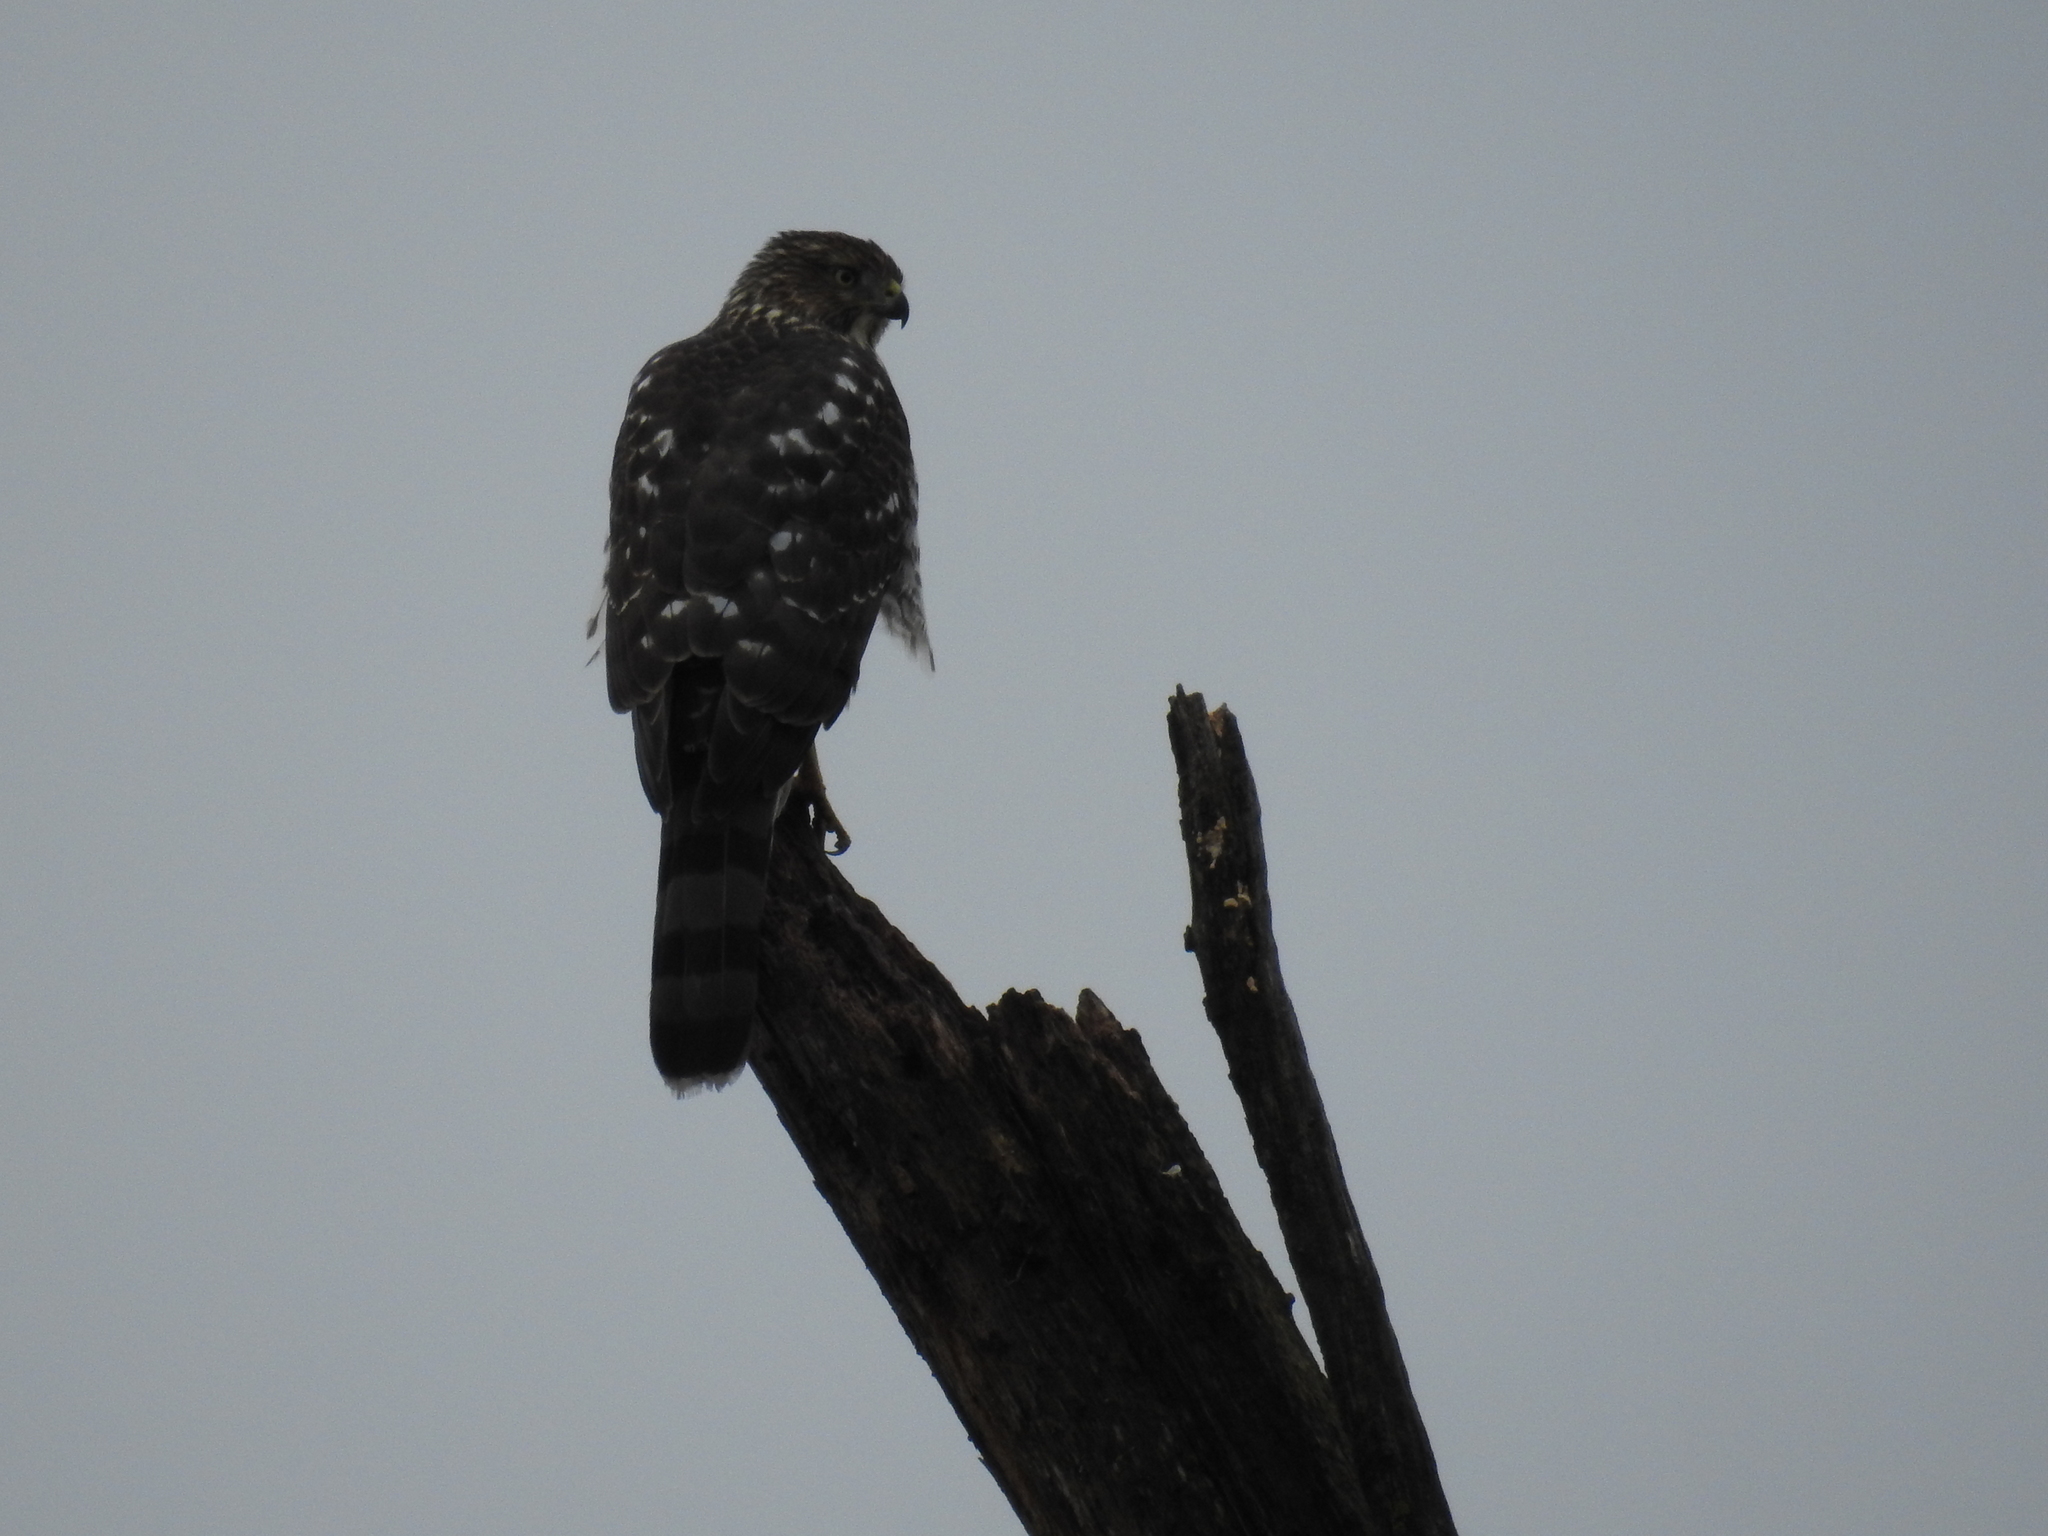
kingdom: Animalia
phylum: Chordata
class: Aves
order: Accipitriformes
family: Accipitridae
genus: Accipiter
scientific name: Accipiter cooperii
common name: Cooper's hawk
